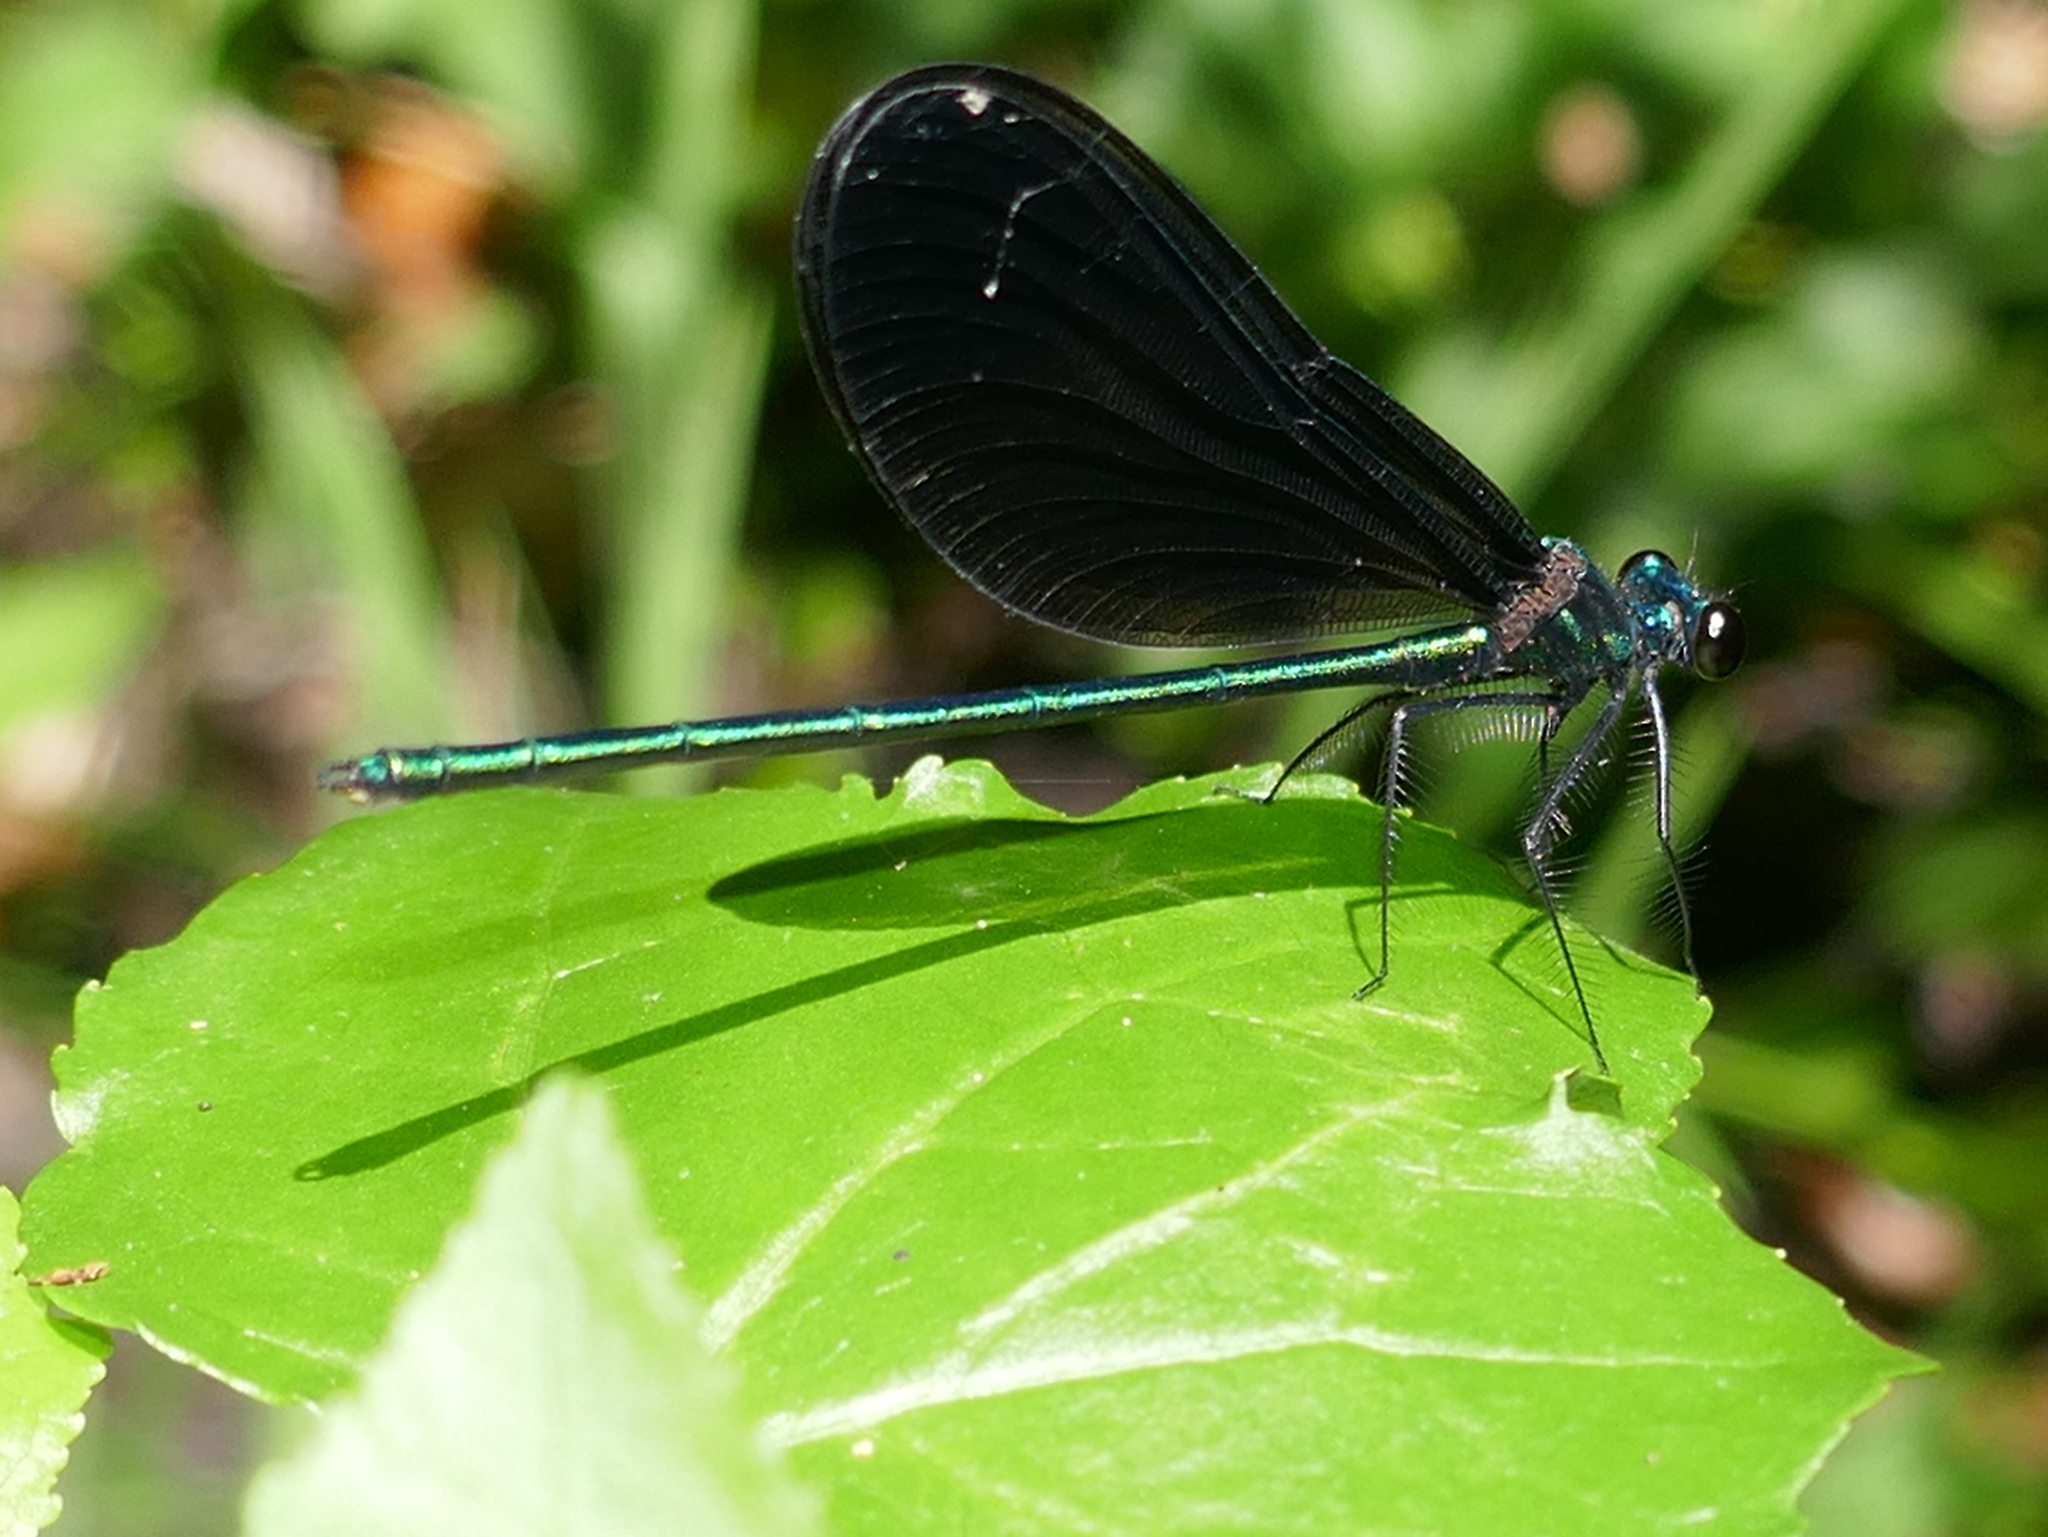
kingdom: Animalia
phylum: Arthropoda
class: Insecta
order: Odonata
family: Calopterygidae
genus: Calopteryx
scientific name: Calopteryx maculata
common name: Ebony jewelwing
